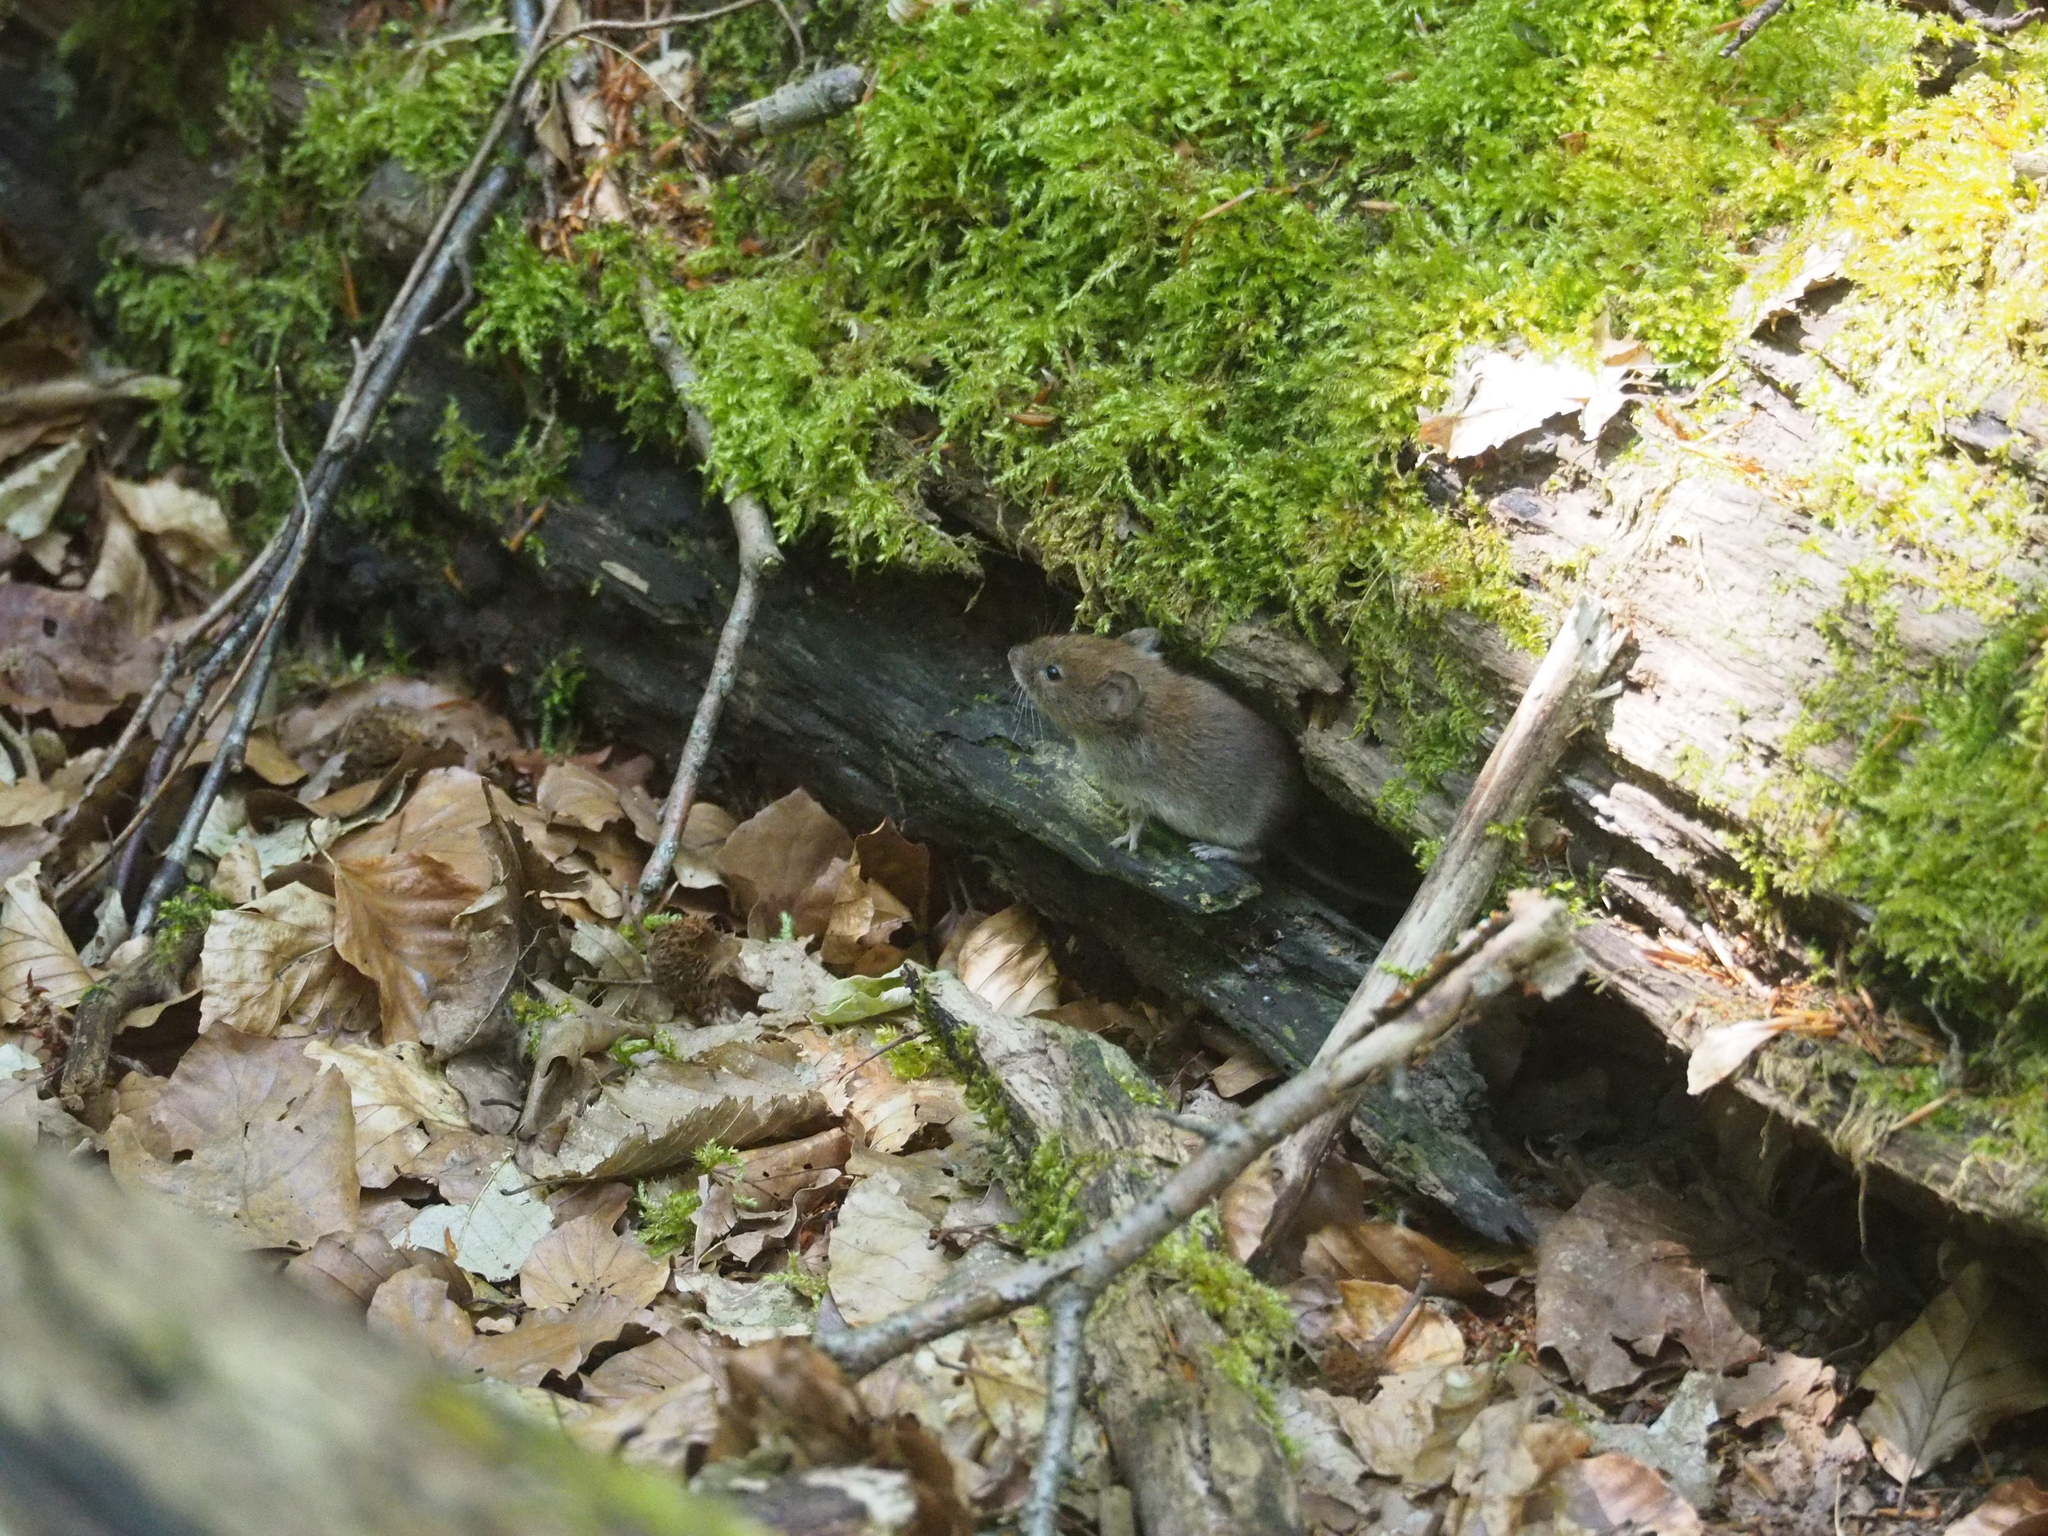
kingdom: Animalia
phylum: Chordata
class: Mammalia
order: Rodentia
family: Cricetidae
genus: Myodes
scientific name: Myodes glareolus
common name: Bank vole
